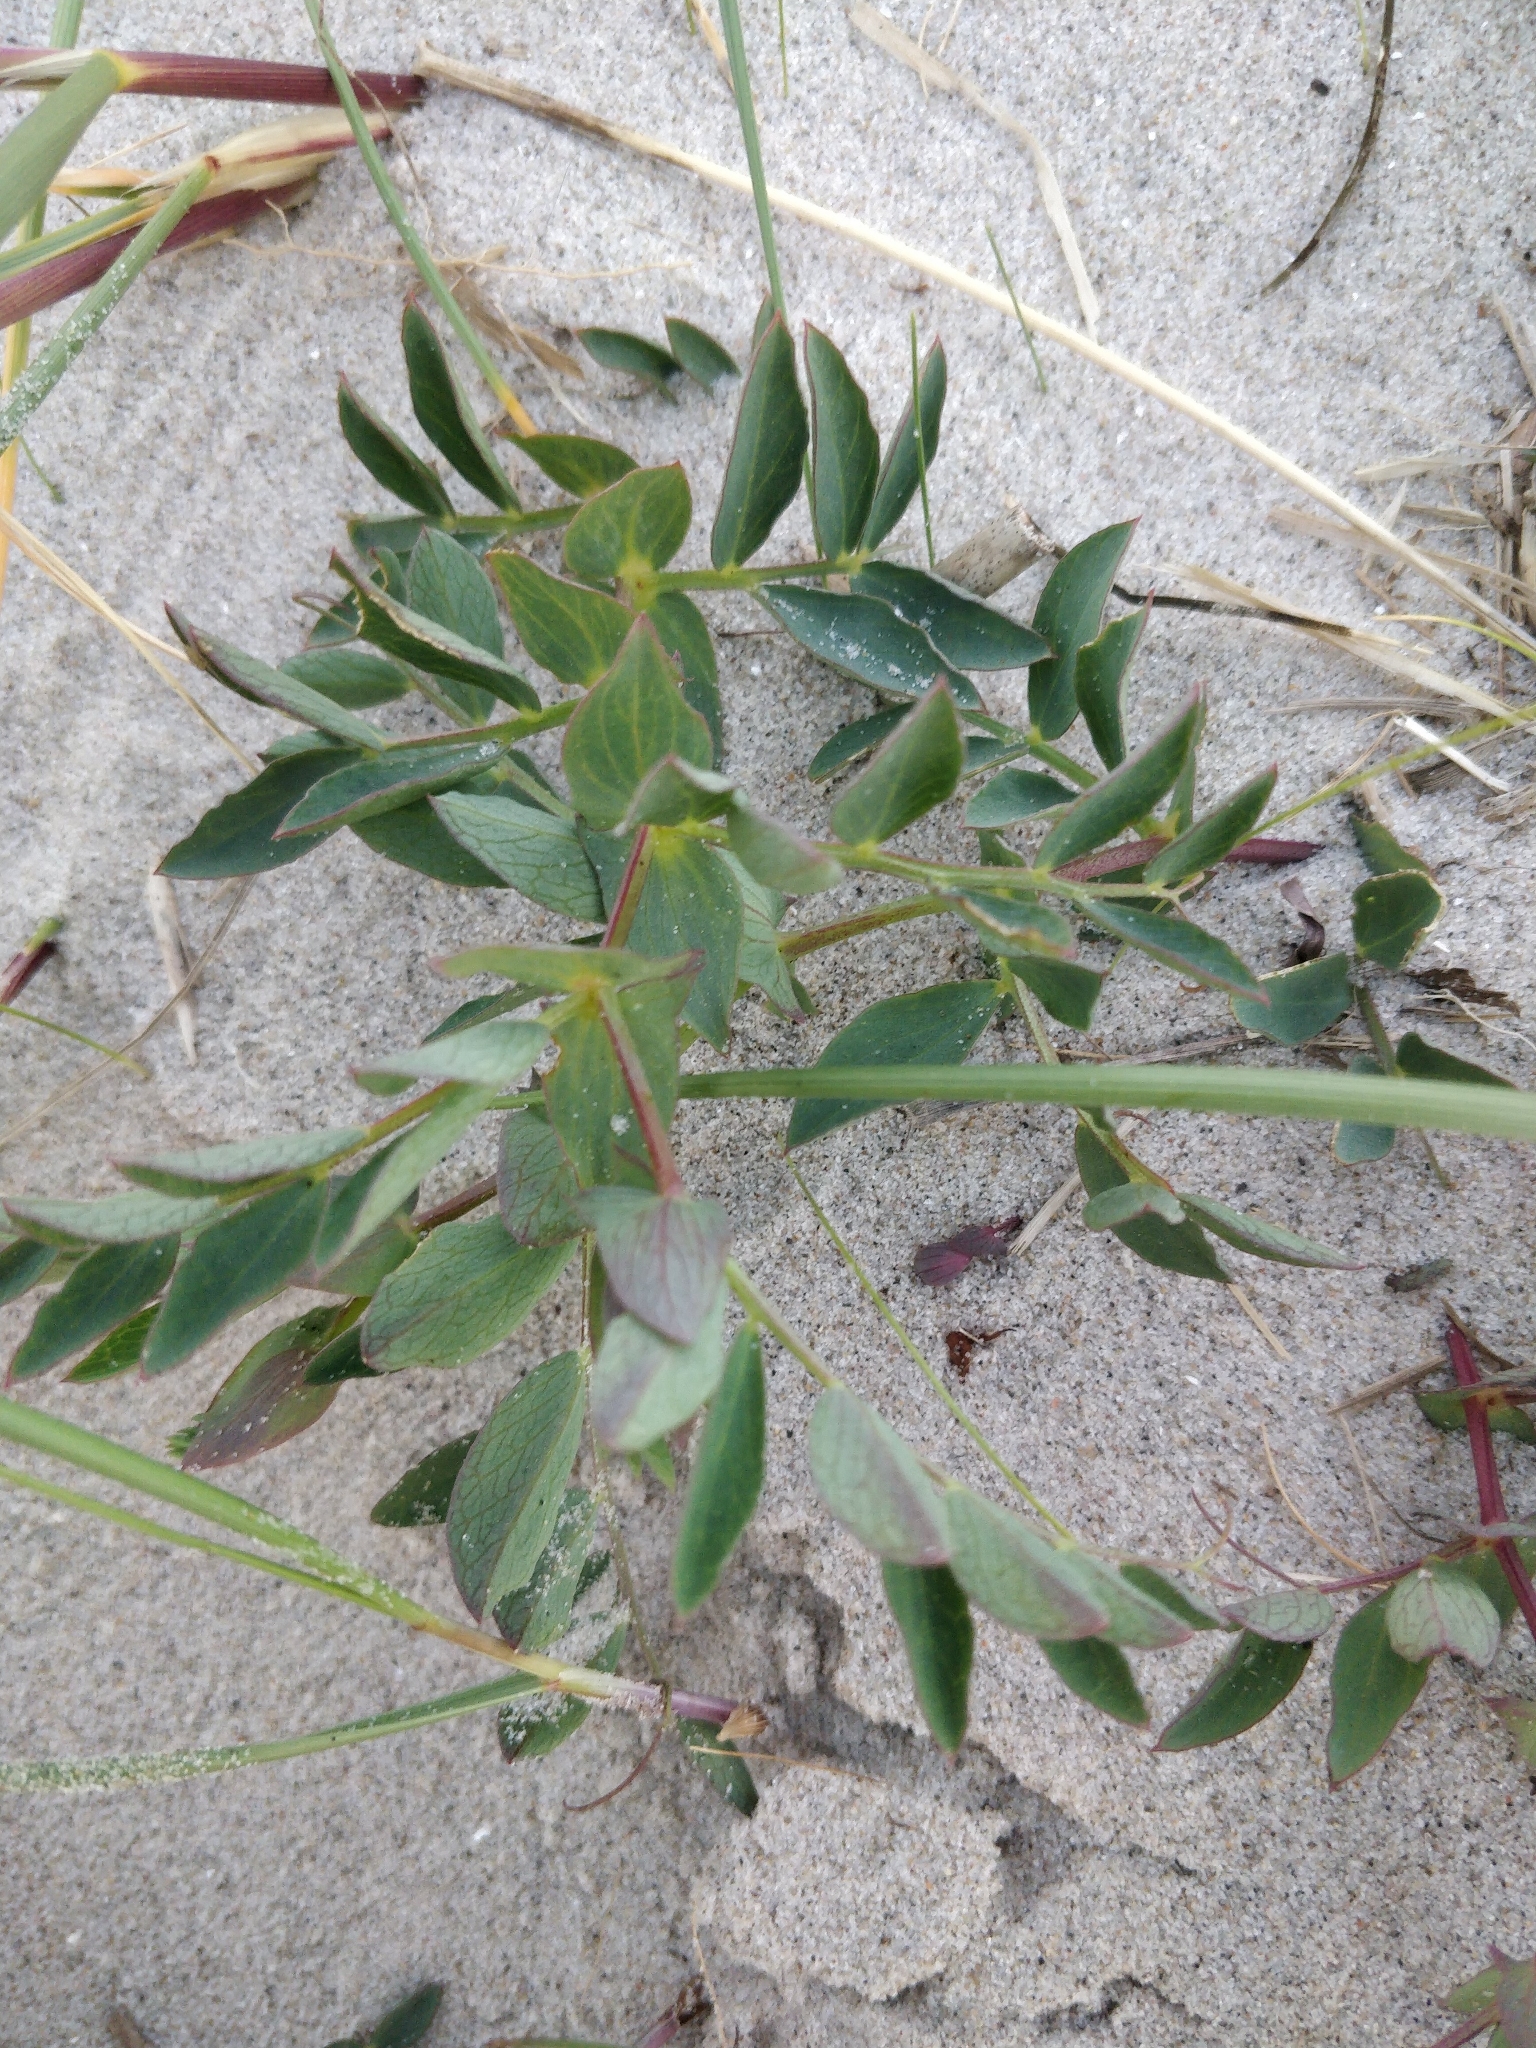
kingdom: Plantae
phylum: Tracheophyta
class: Magnoliopsida
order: Fabales
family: Fabaceae
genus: Lathyrus
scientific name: Lathyrus japonicus
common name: Sea pea
